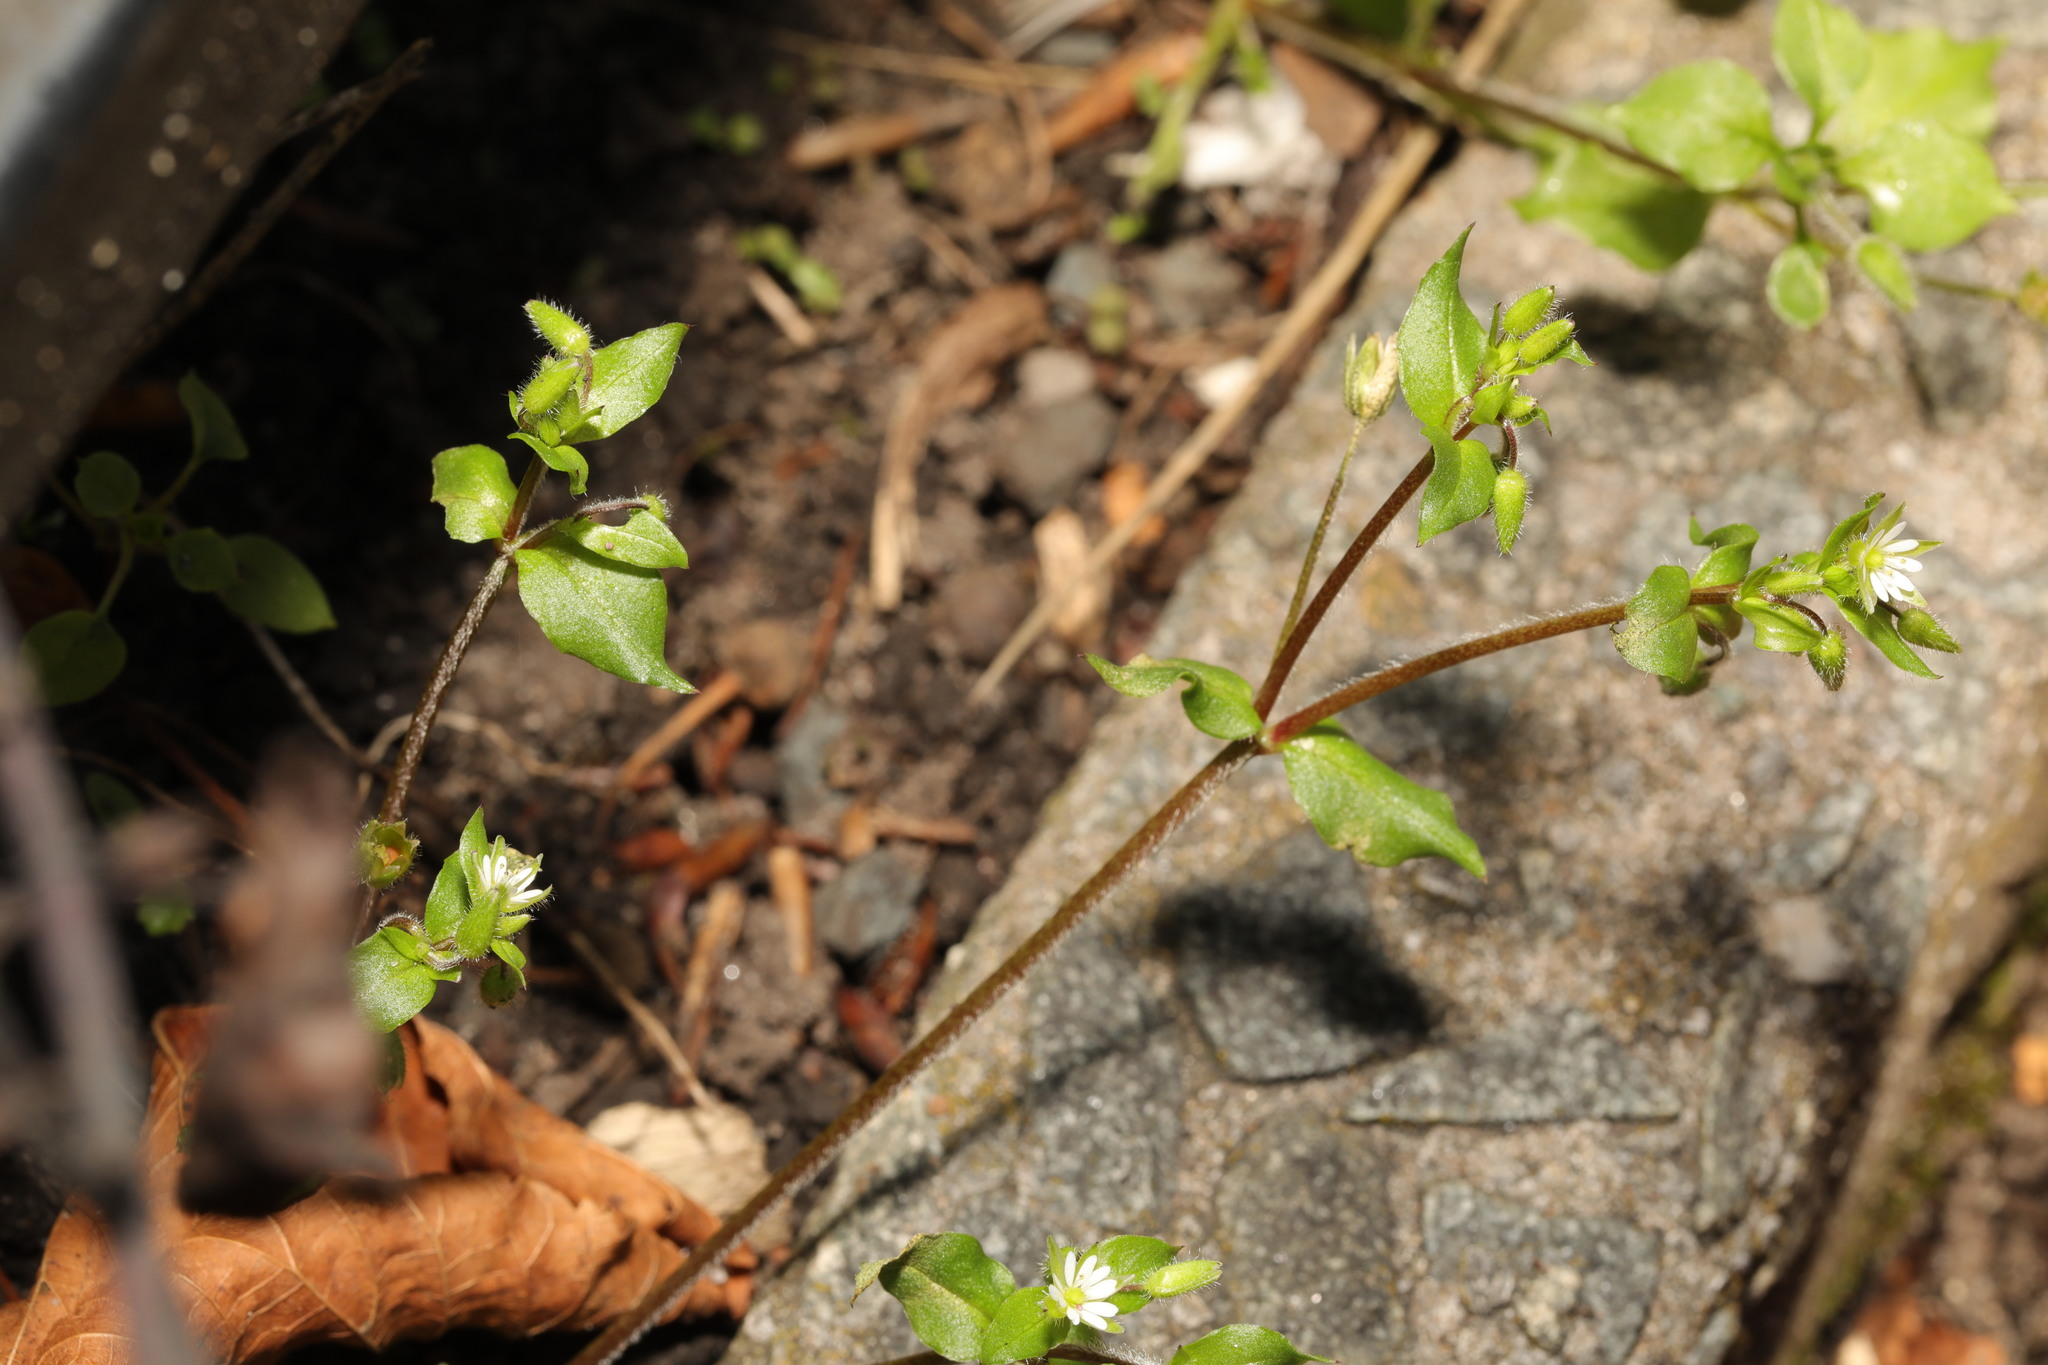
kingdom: Plantae
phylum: Tracheophyta
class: Magnoliopsida
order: Caryophyllales
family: Caryophyllaceae
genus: Stellaria
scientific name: Stellaria media
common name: Common chickweed
